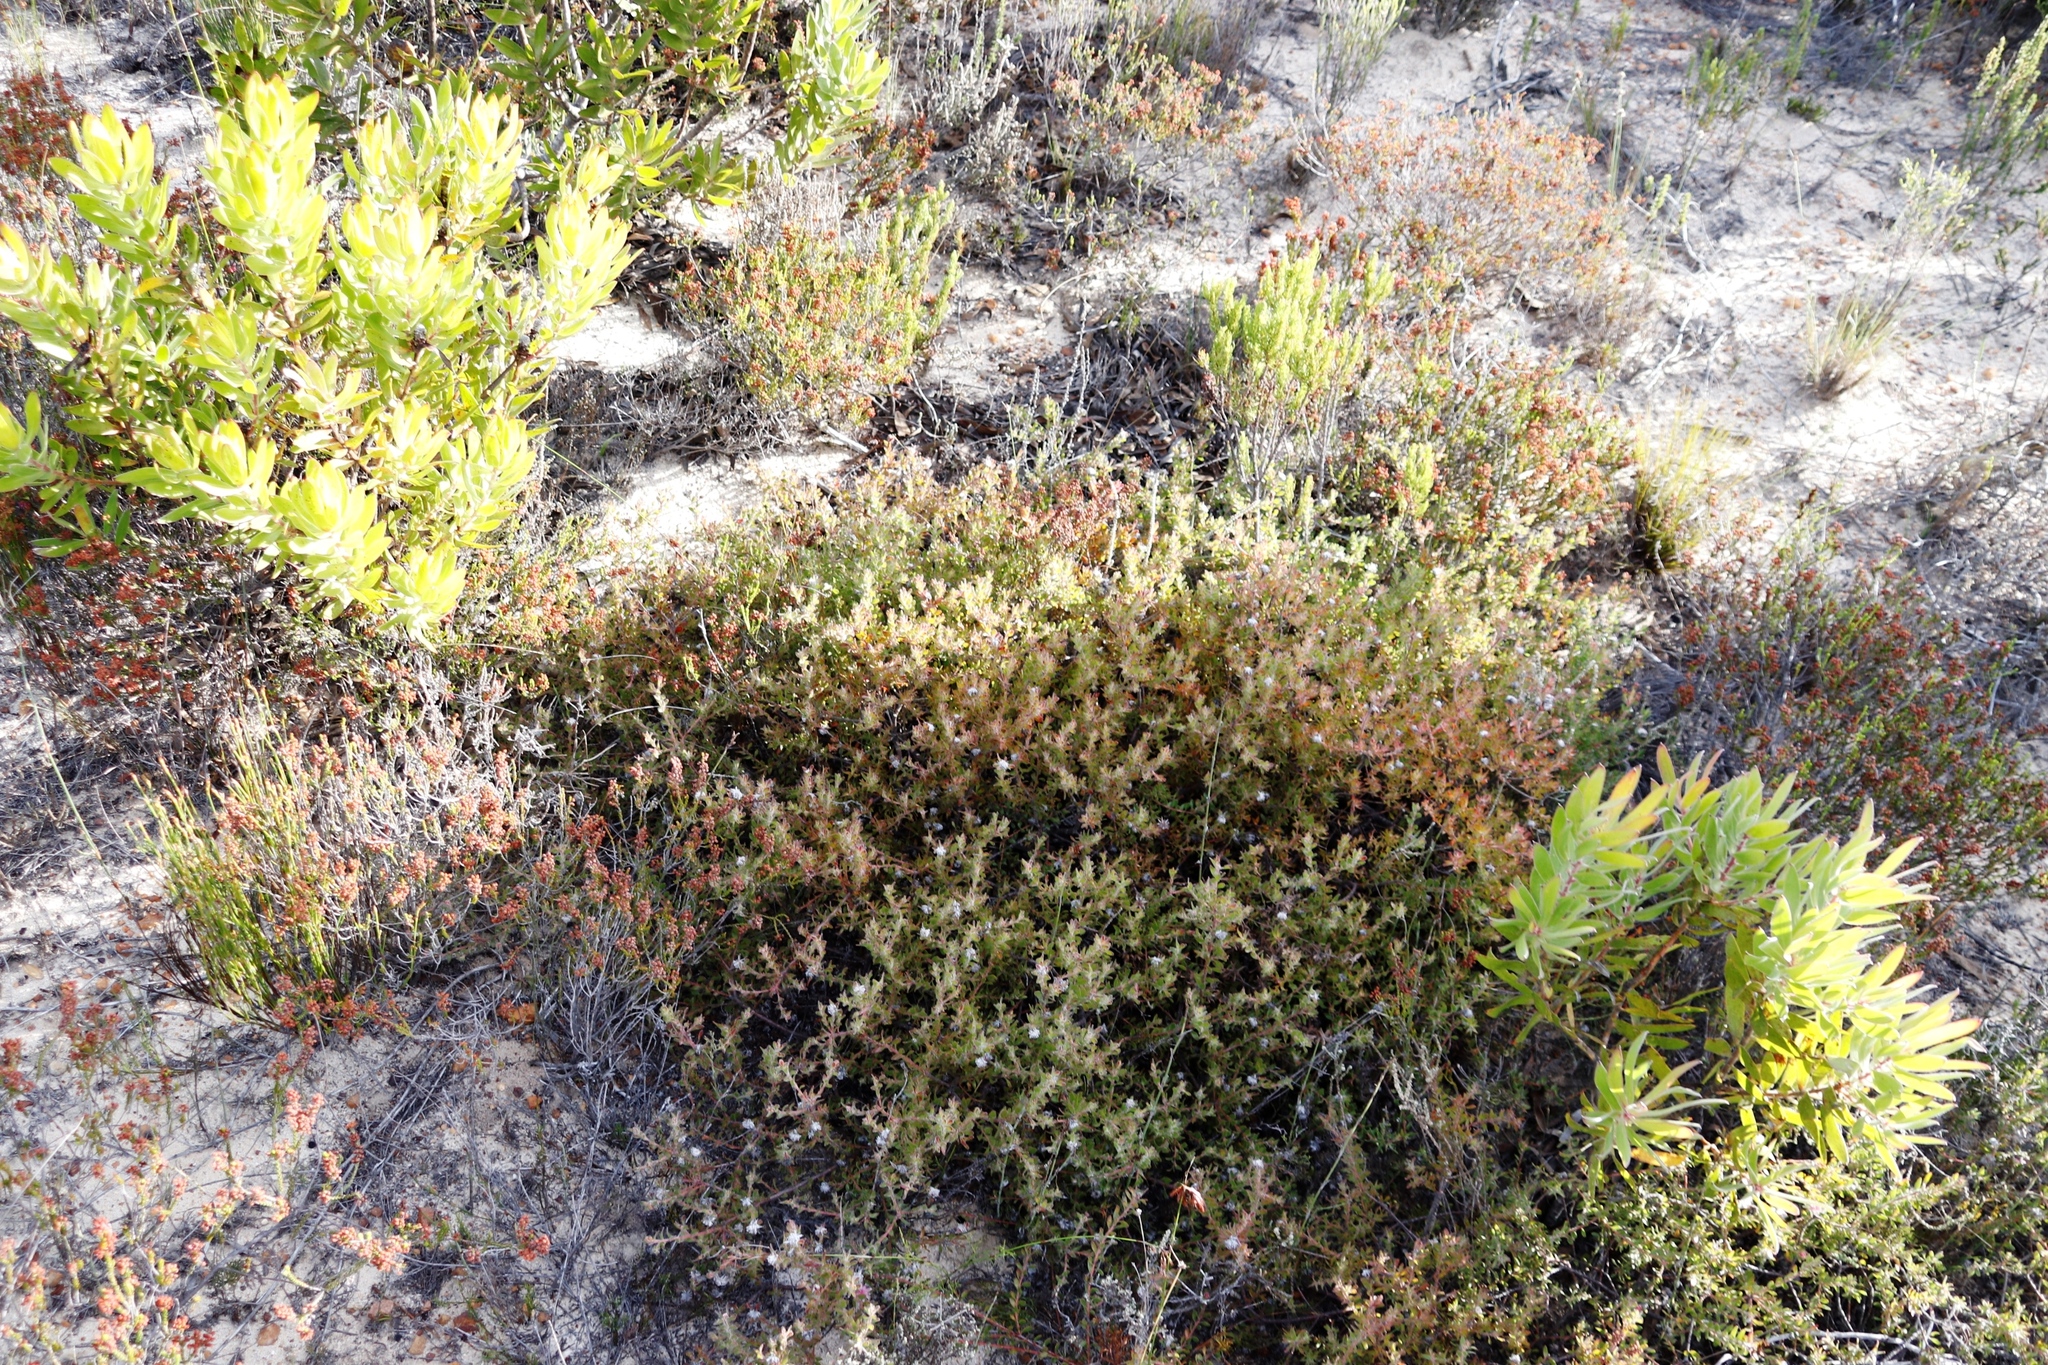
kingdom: Plantae
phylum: Tracheophyta
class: Magnoliopsida
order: Proteales
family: Proteaceae
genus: Diastella
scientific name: Diastella divaricata
